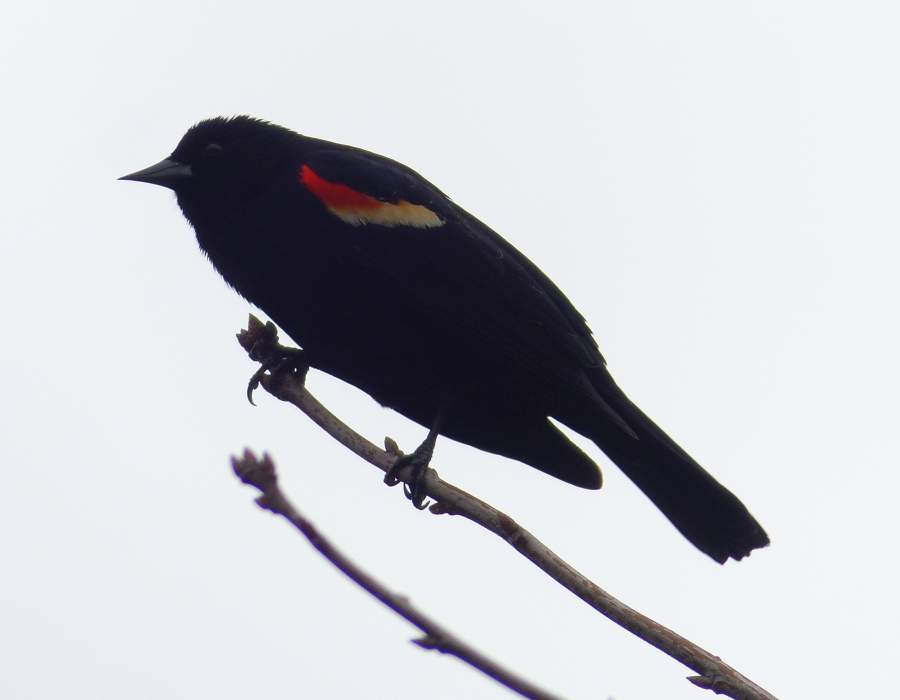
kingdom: Animalia
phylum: Chordata
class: Aves
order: Passeriformes
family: Icteridae
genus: Agelaius
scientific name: Agelaius phoeniceus
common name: Red-winged blackbird
